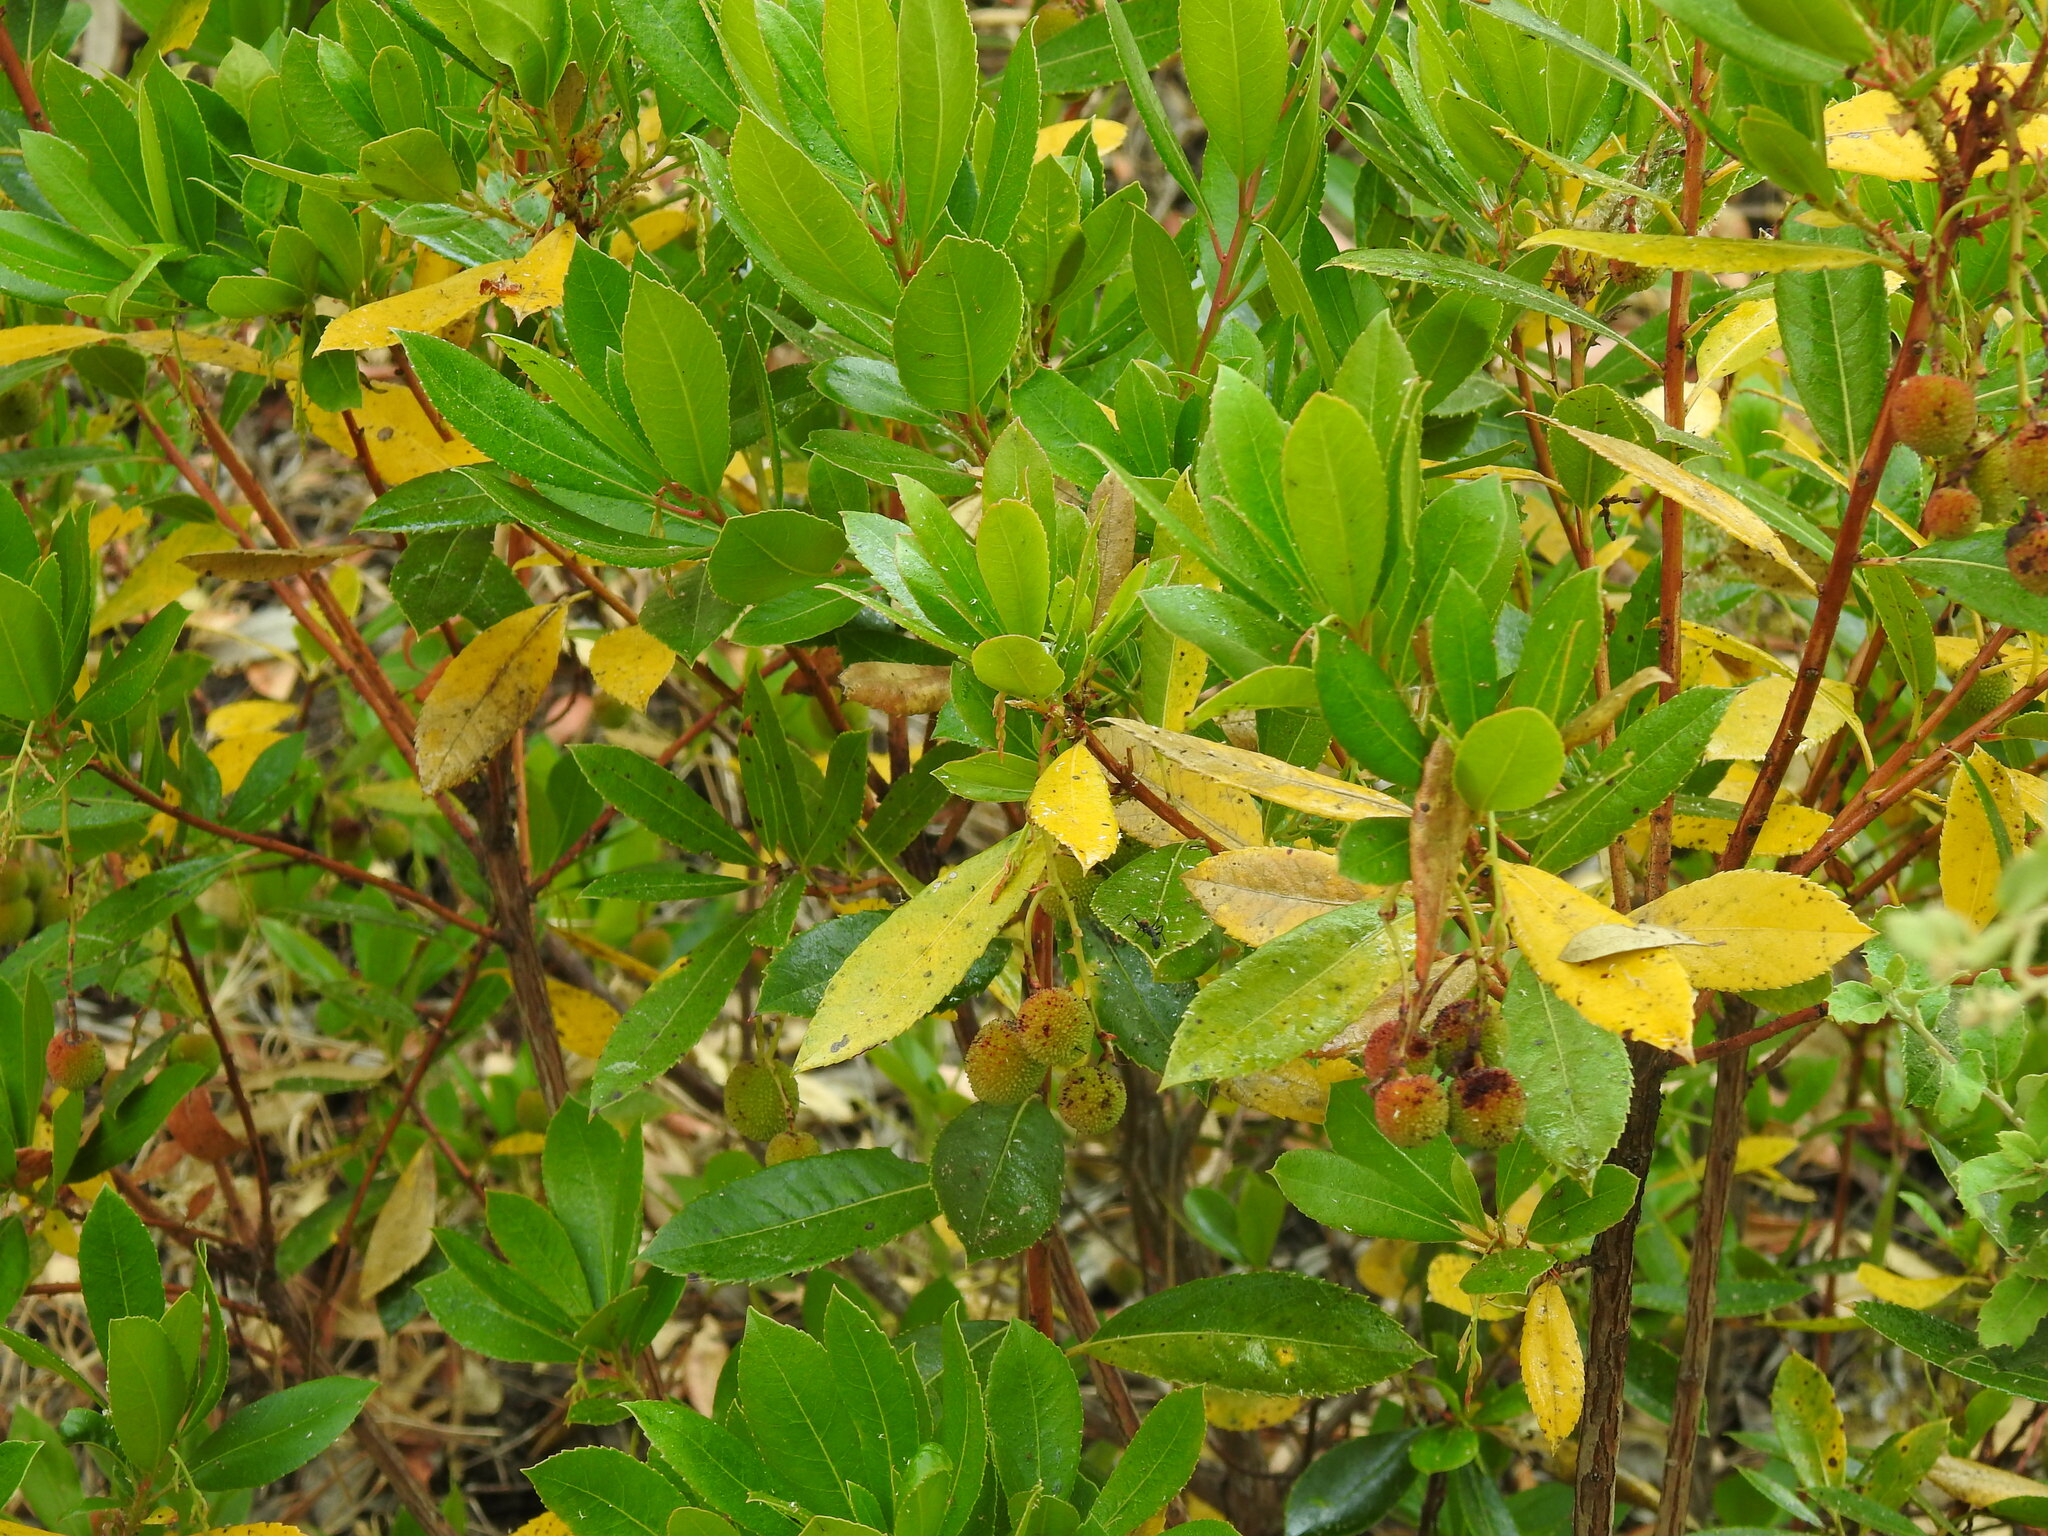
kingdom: Plantae
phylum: Tracheophyta
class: Magnoliopsida
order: Ericales
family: Ericaceae
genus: Arbutus
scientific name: Arbutus unedo
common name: Strawberry-tree
